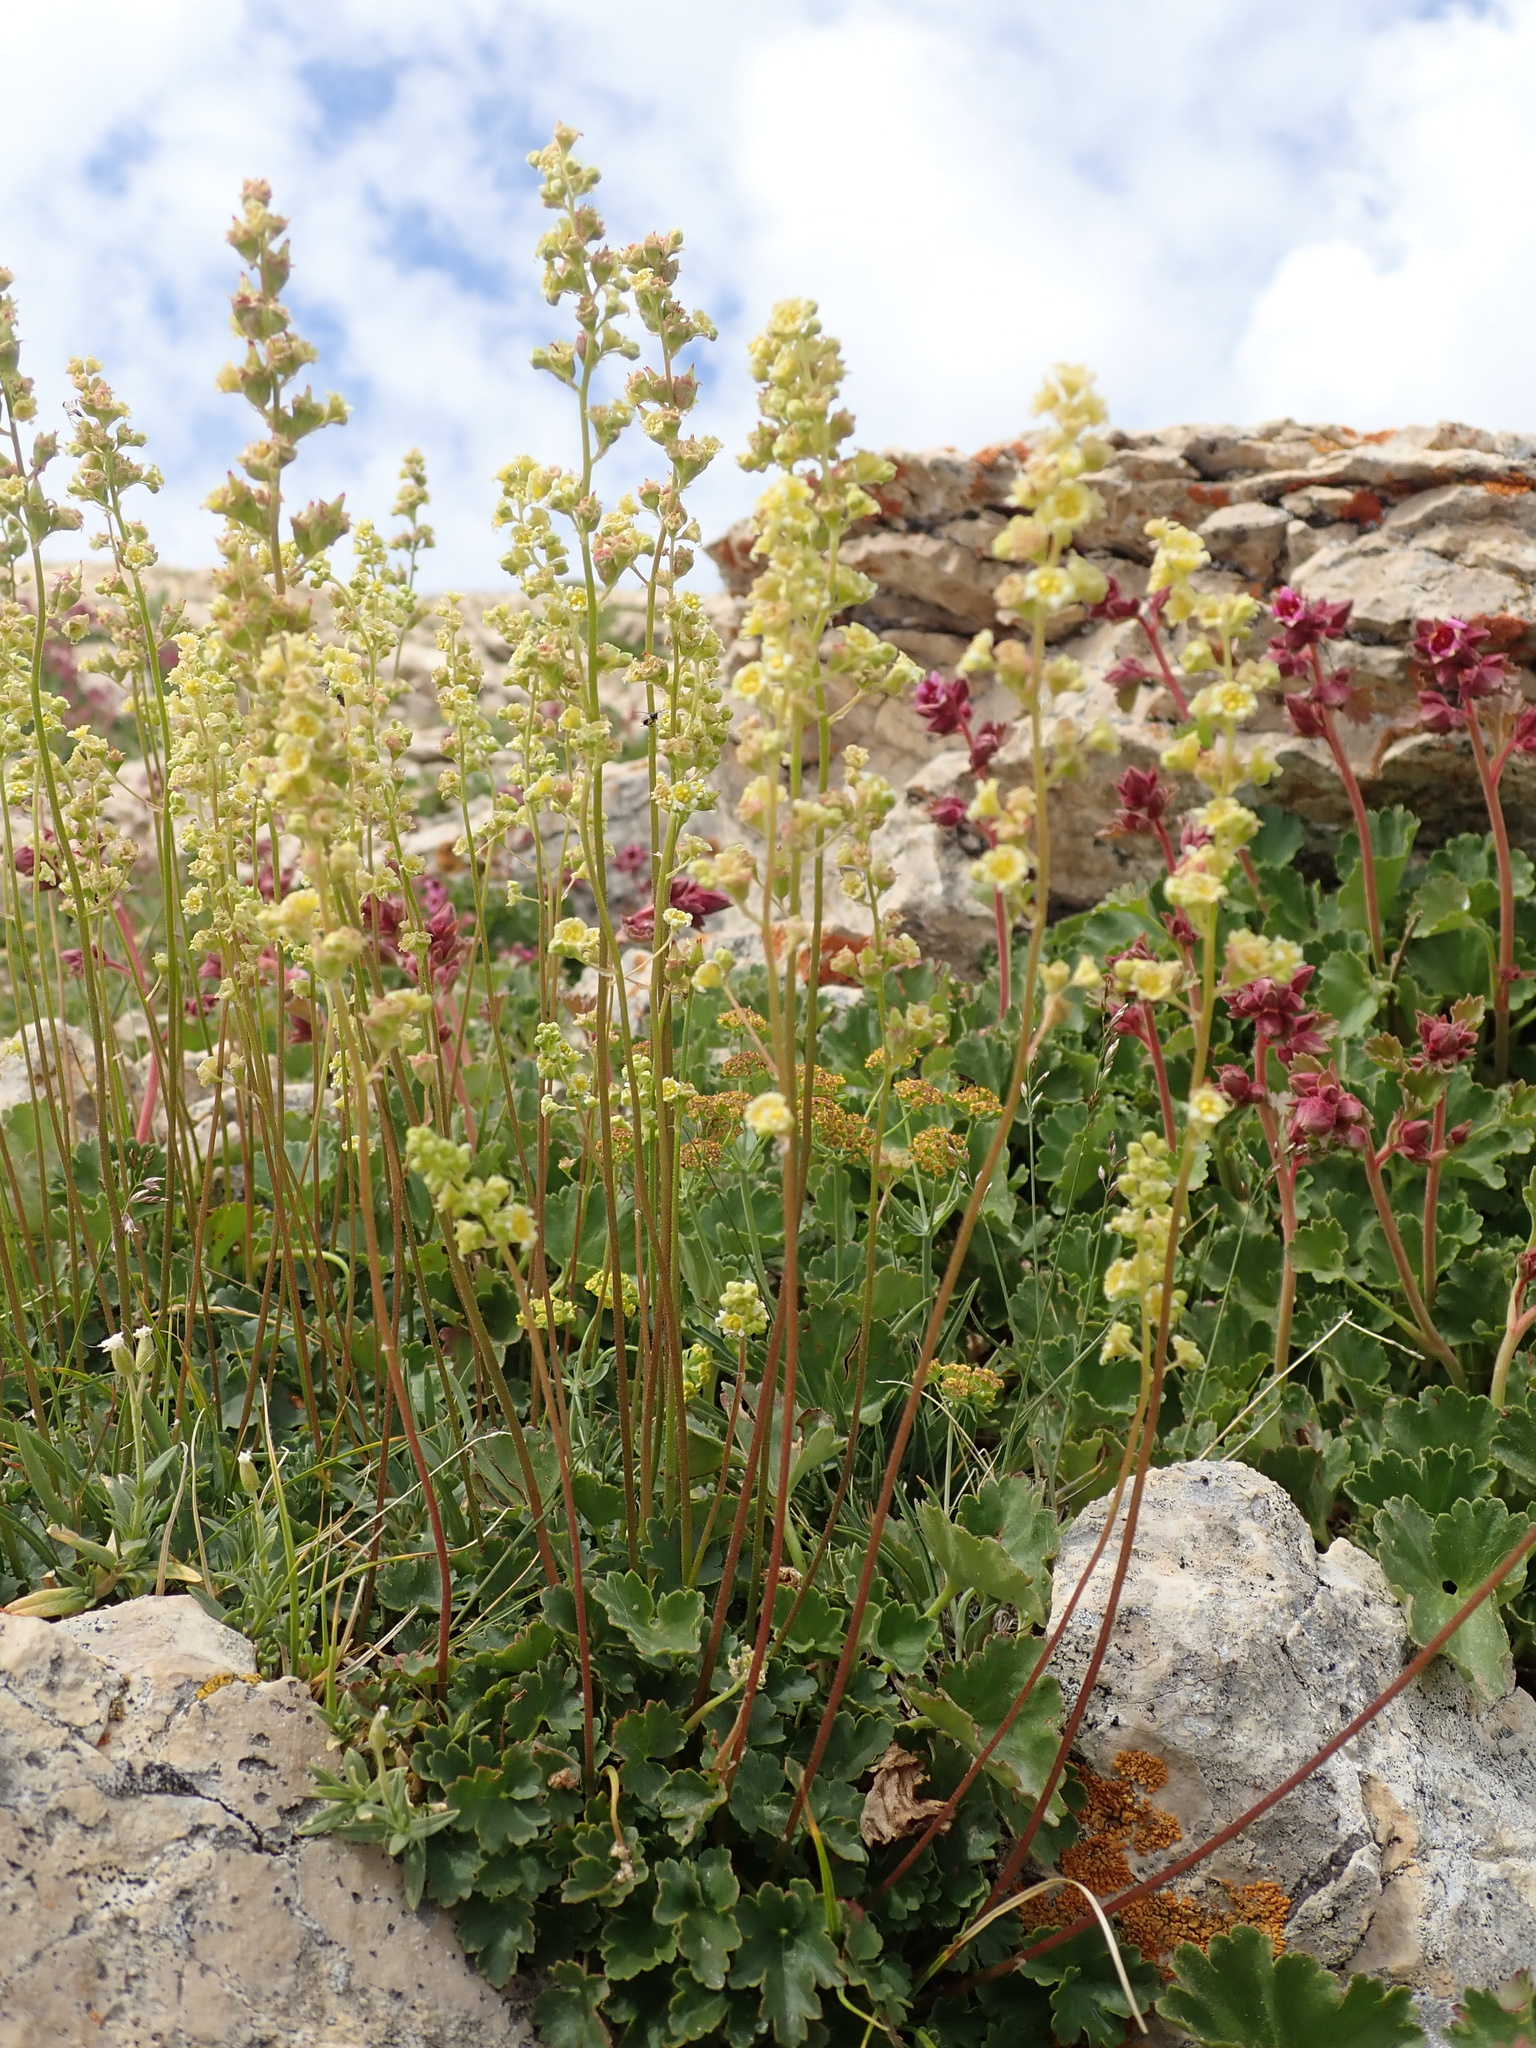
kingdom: Plantae
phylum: Tracheophyta
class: Magnoliopsida
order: Saxifragales
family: Saxifragaceae
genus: Heuchera
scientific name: Heuchera parvifolia
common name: Common alumroot
